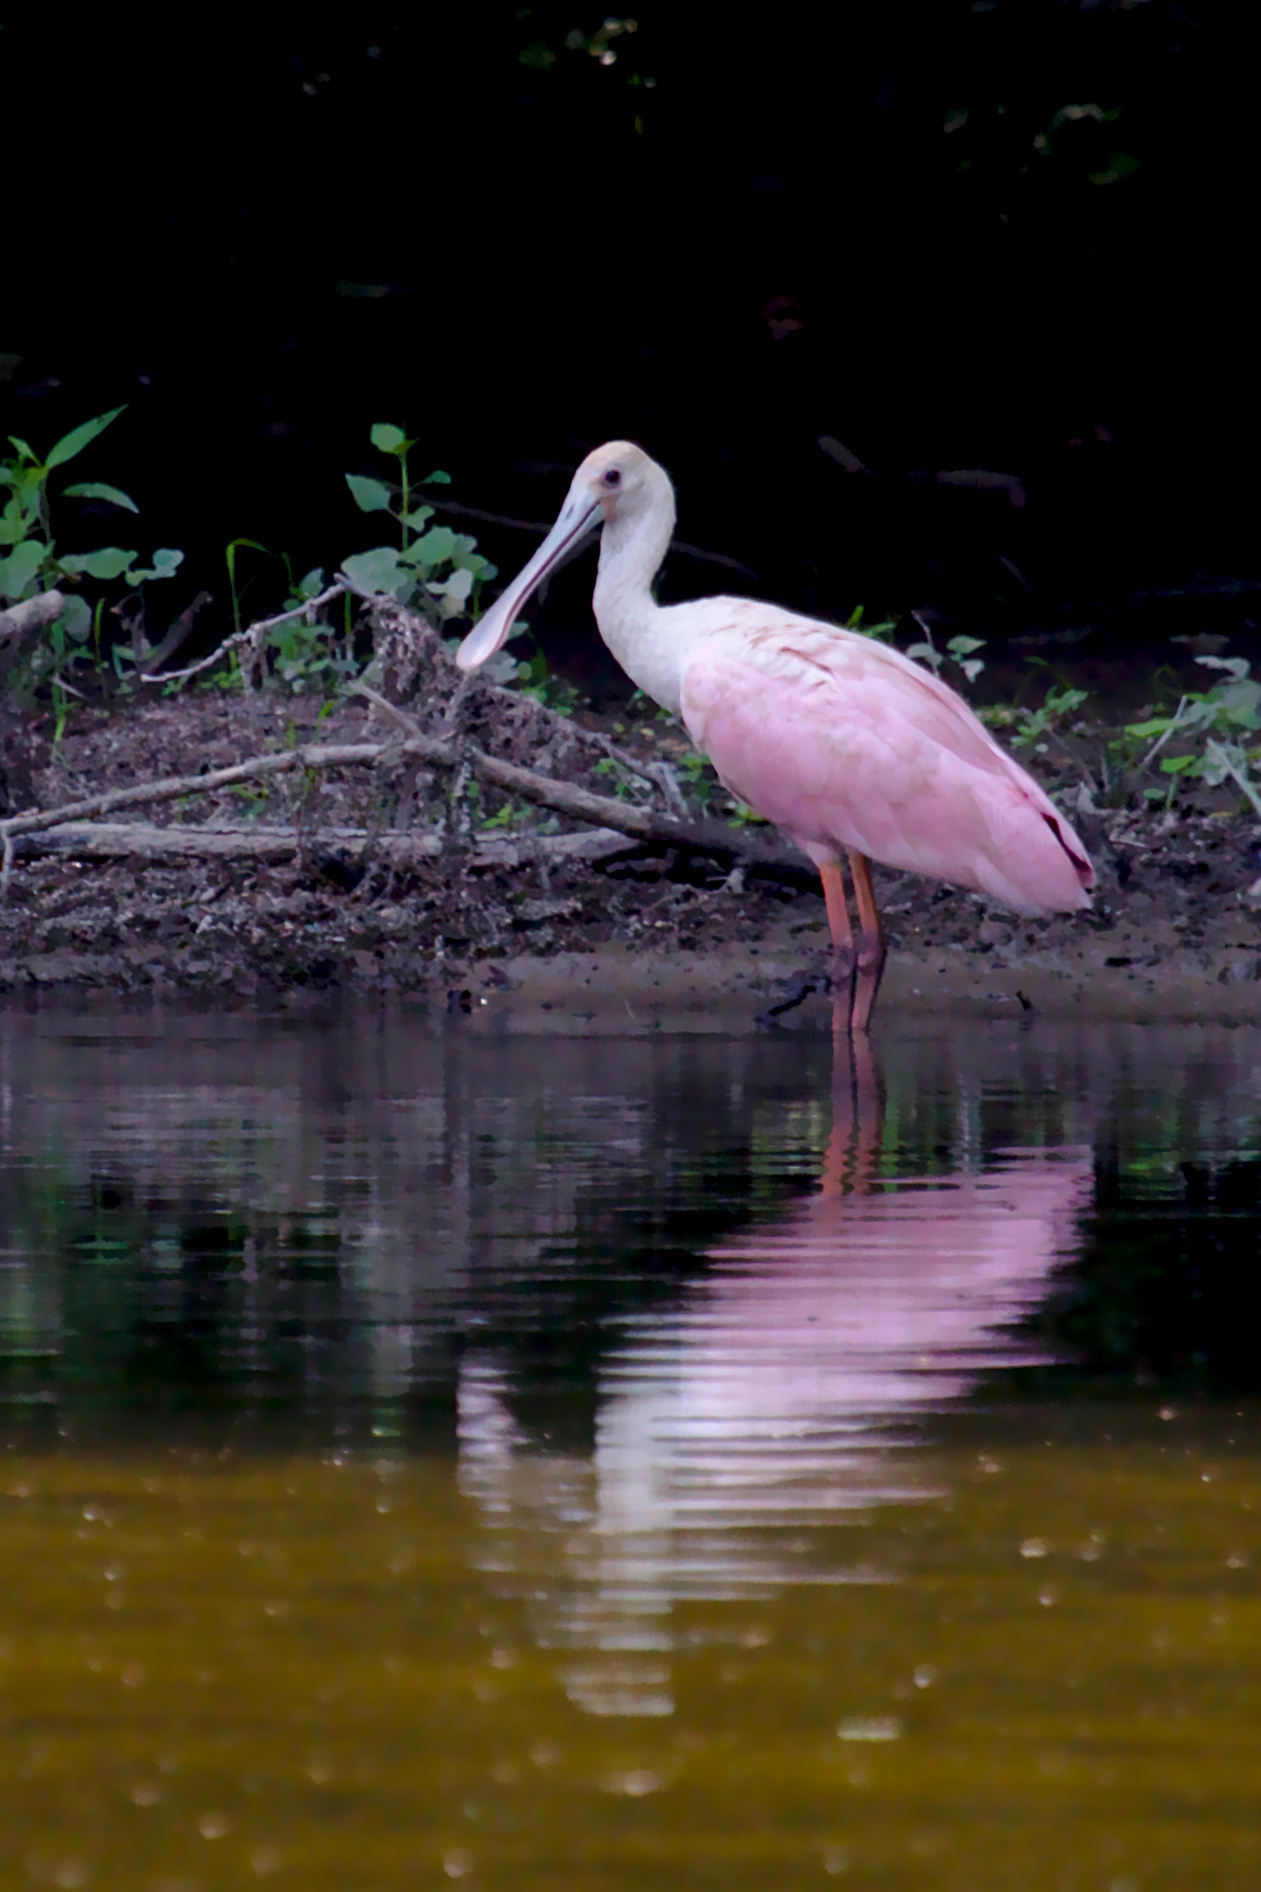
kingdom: Animalia
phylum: Chordata
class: Aves
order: Pelecaniformes
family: Threskiornithidae
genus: Platalea
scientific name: Platalea ajaja
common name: Roseate spoonbill
